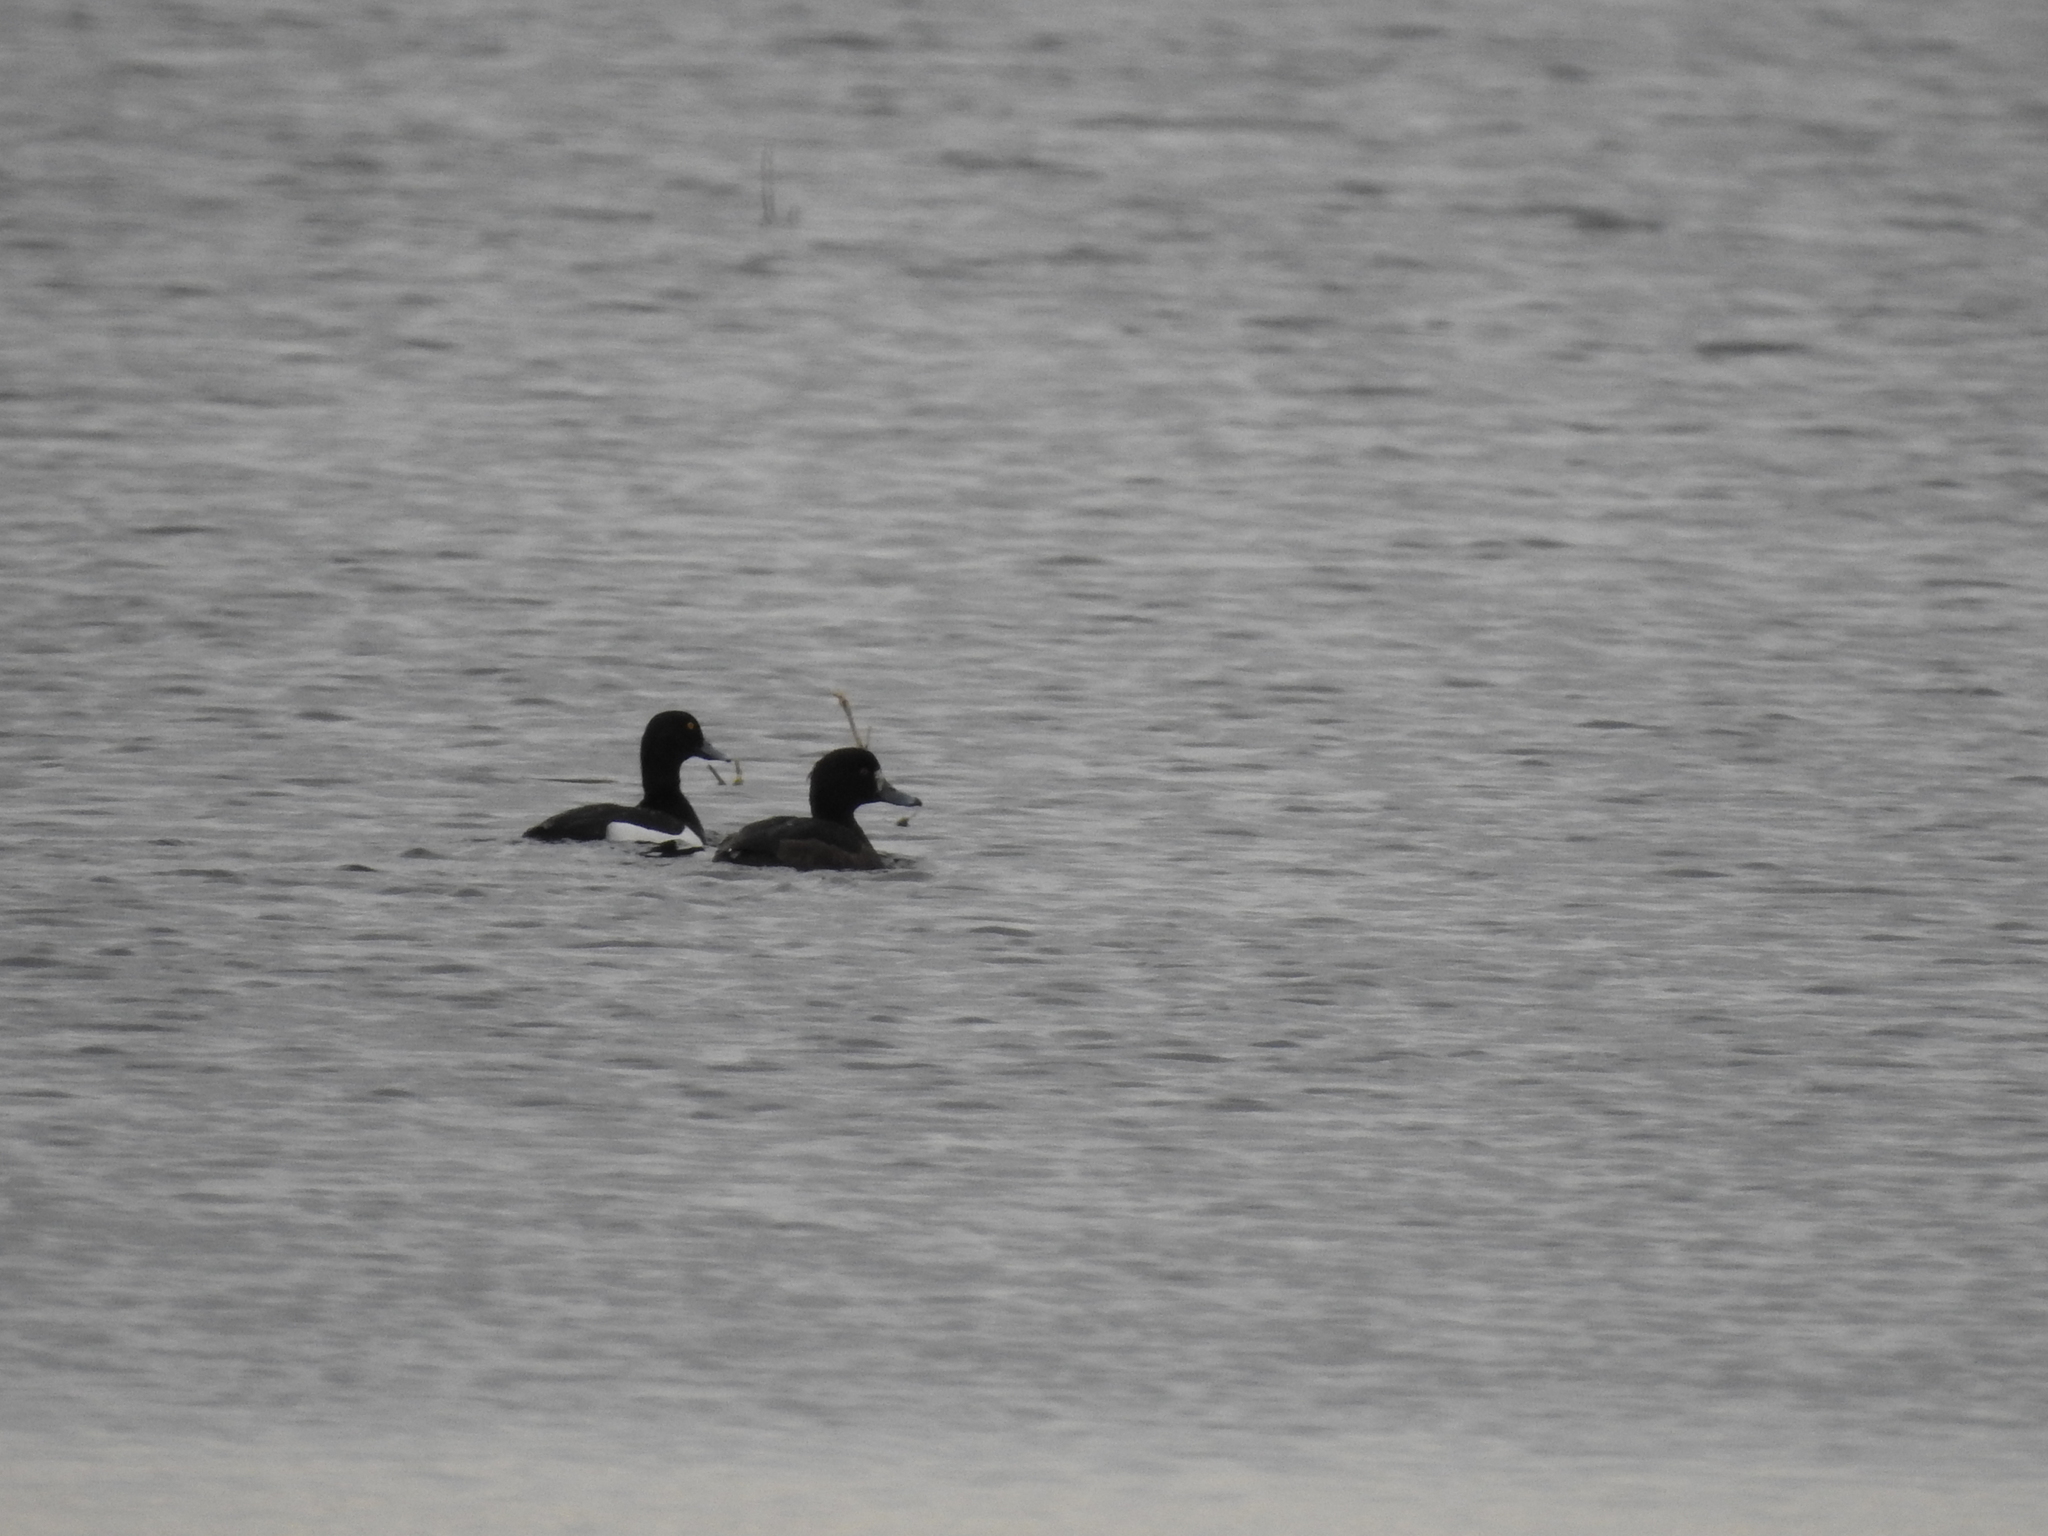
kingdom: Animalia
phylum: Chordata
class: Aves
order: Anseriformes
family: Anatidae
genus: Aythya
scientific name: Aythya fuligula
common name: Tufted duck
